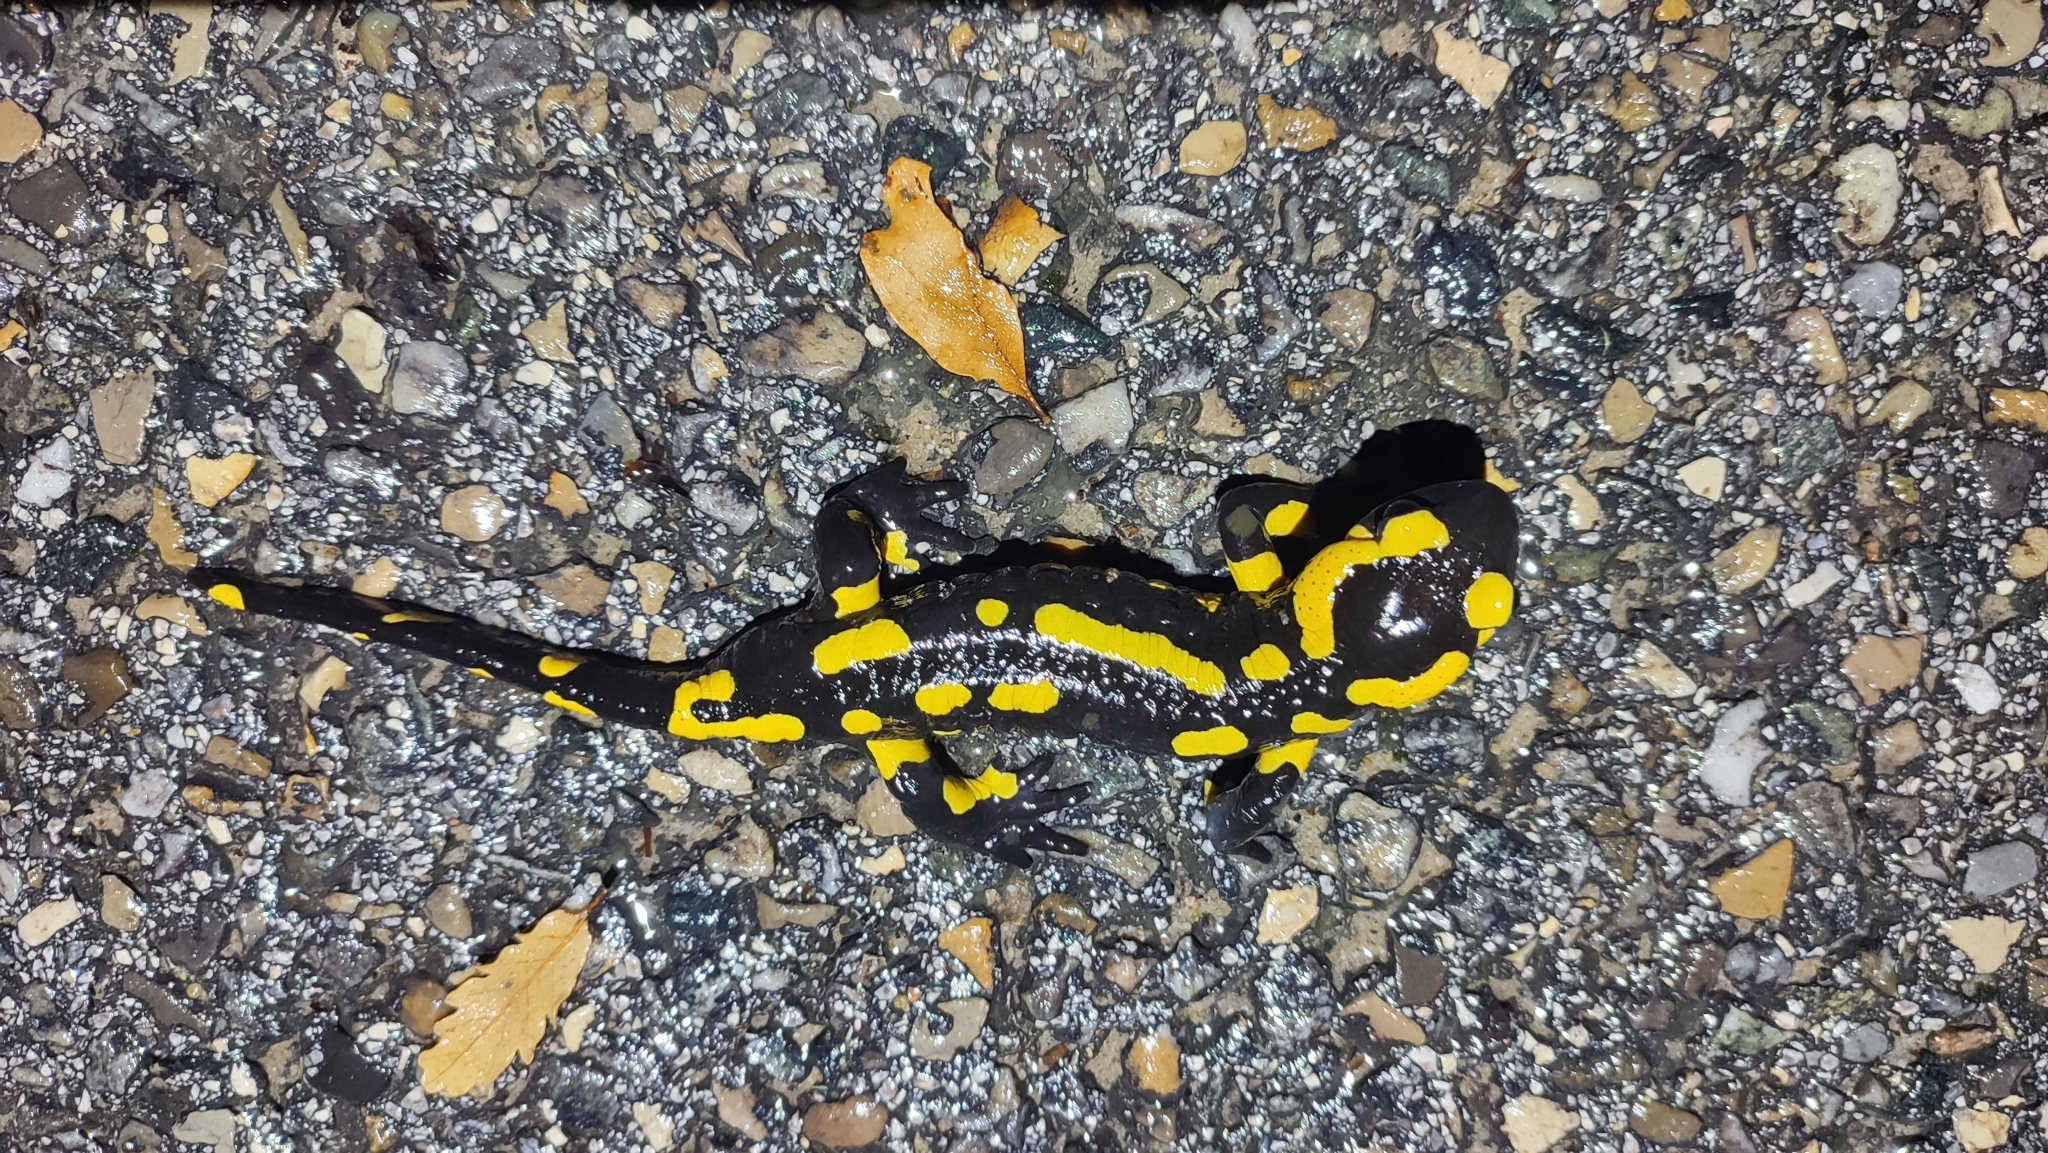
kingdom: Animalia
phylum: Chordata
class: Amphibia
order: Caudata
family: Salamandridae
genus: Salamandra
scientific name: Salamandra salamandra
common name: Fire salamander
